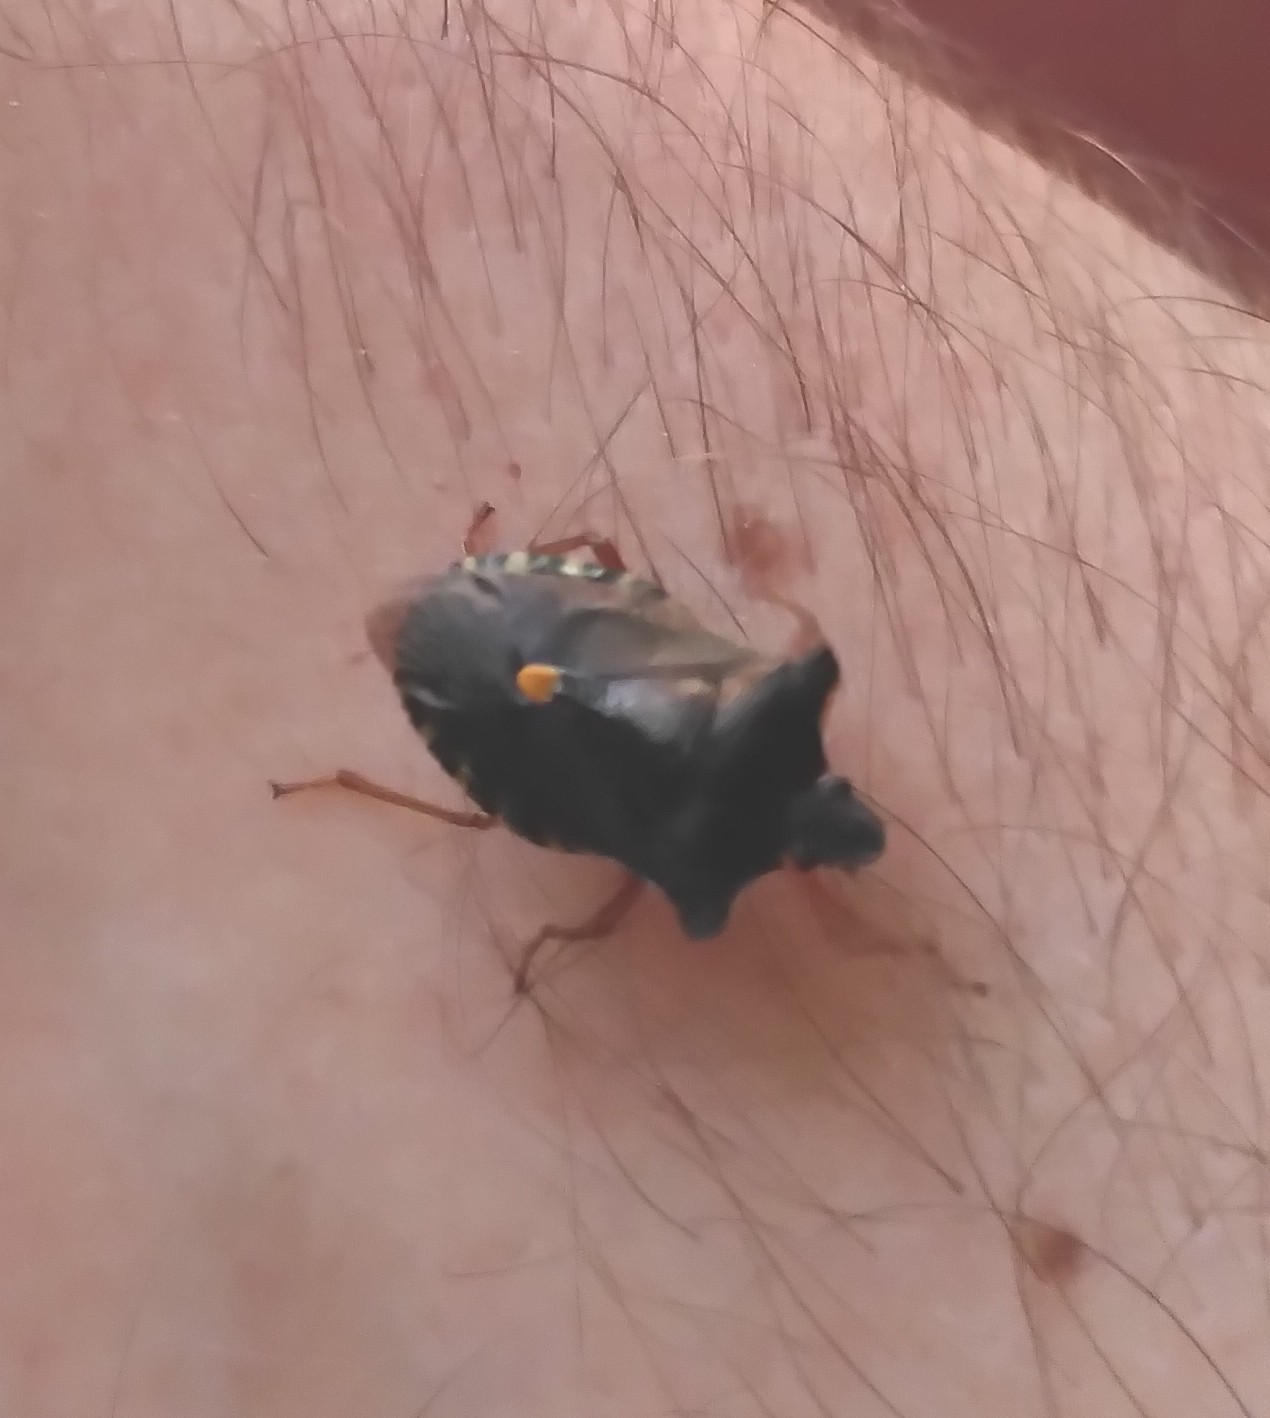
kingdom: Animalia
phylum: Arthropoda
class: Insecta
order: Hemiptera
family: Pentatomidae
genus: Pentatoma
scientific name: Pentatoma rufipes
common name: Forest bug
